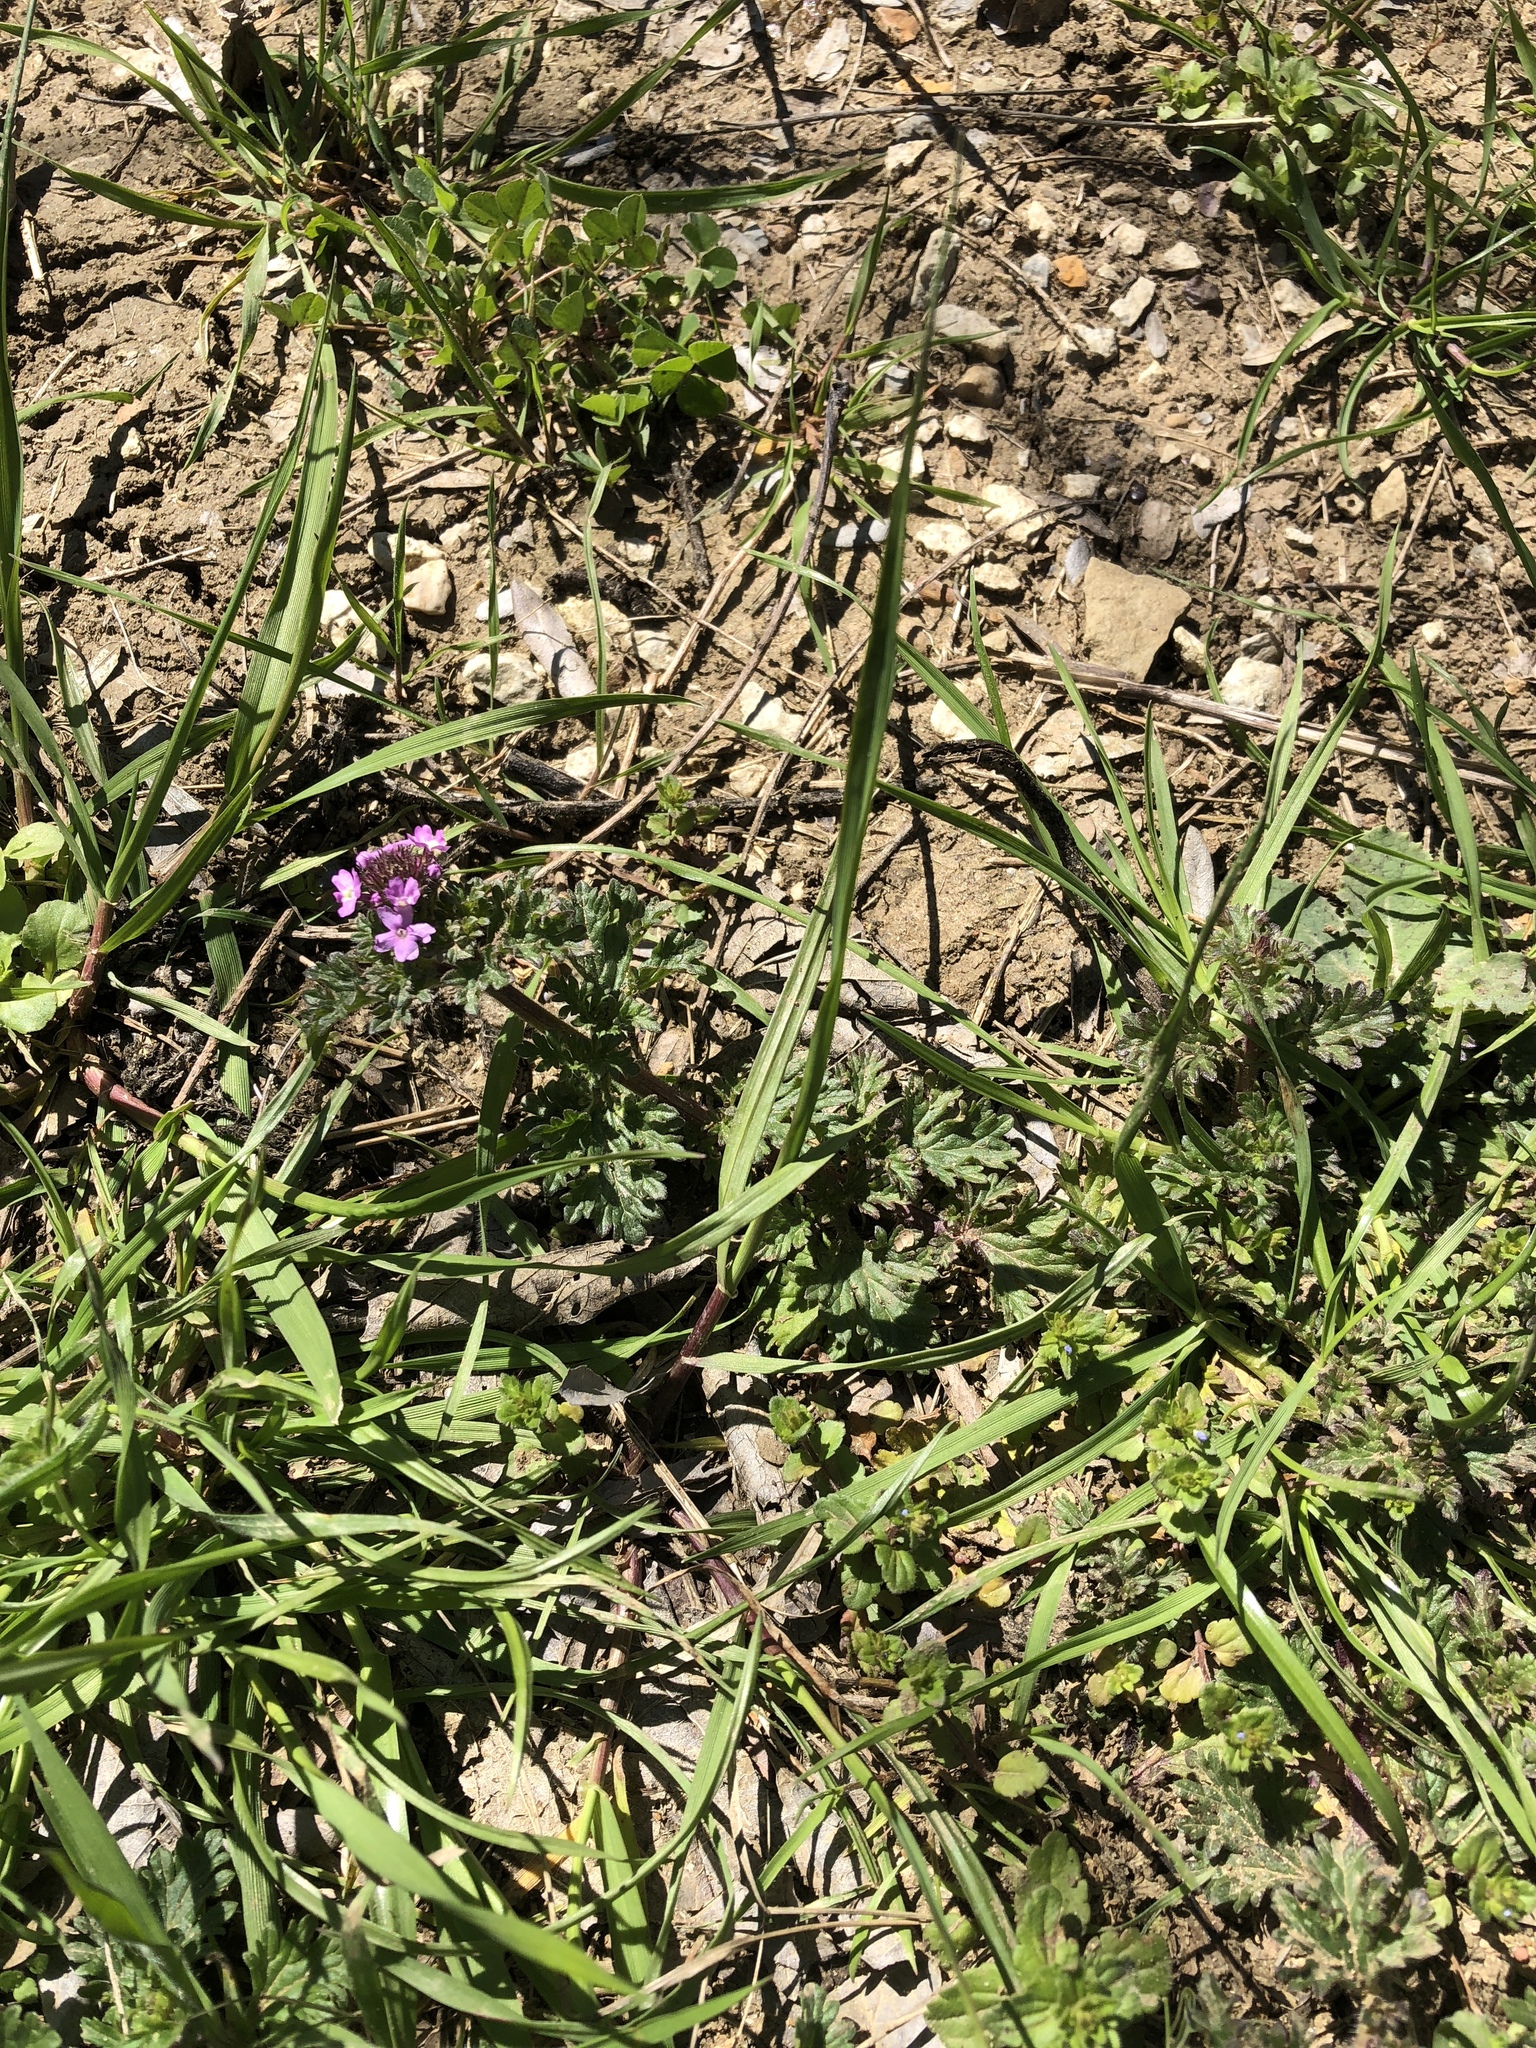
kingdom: Plantae
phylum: Tracheophyta
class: Magnoliopsida
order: Lamiales
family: Verbenaceae
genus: Verbena
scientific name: Verbena pumila
